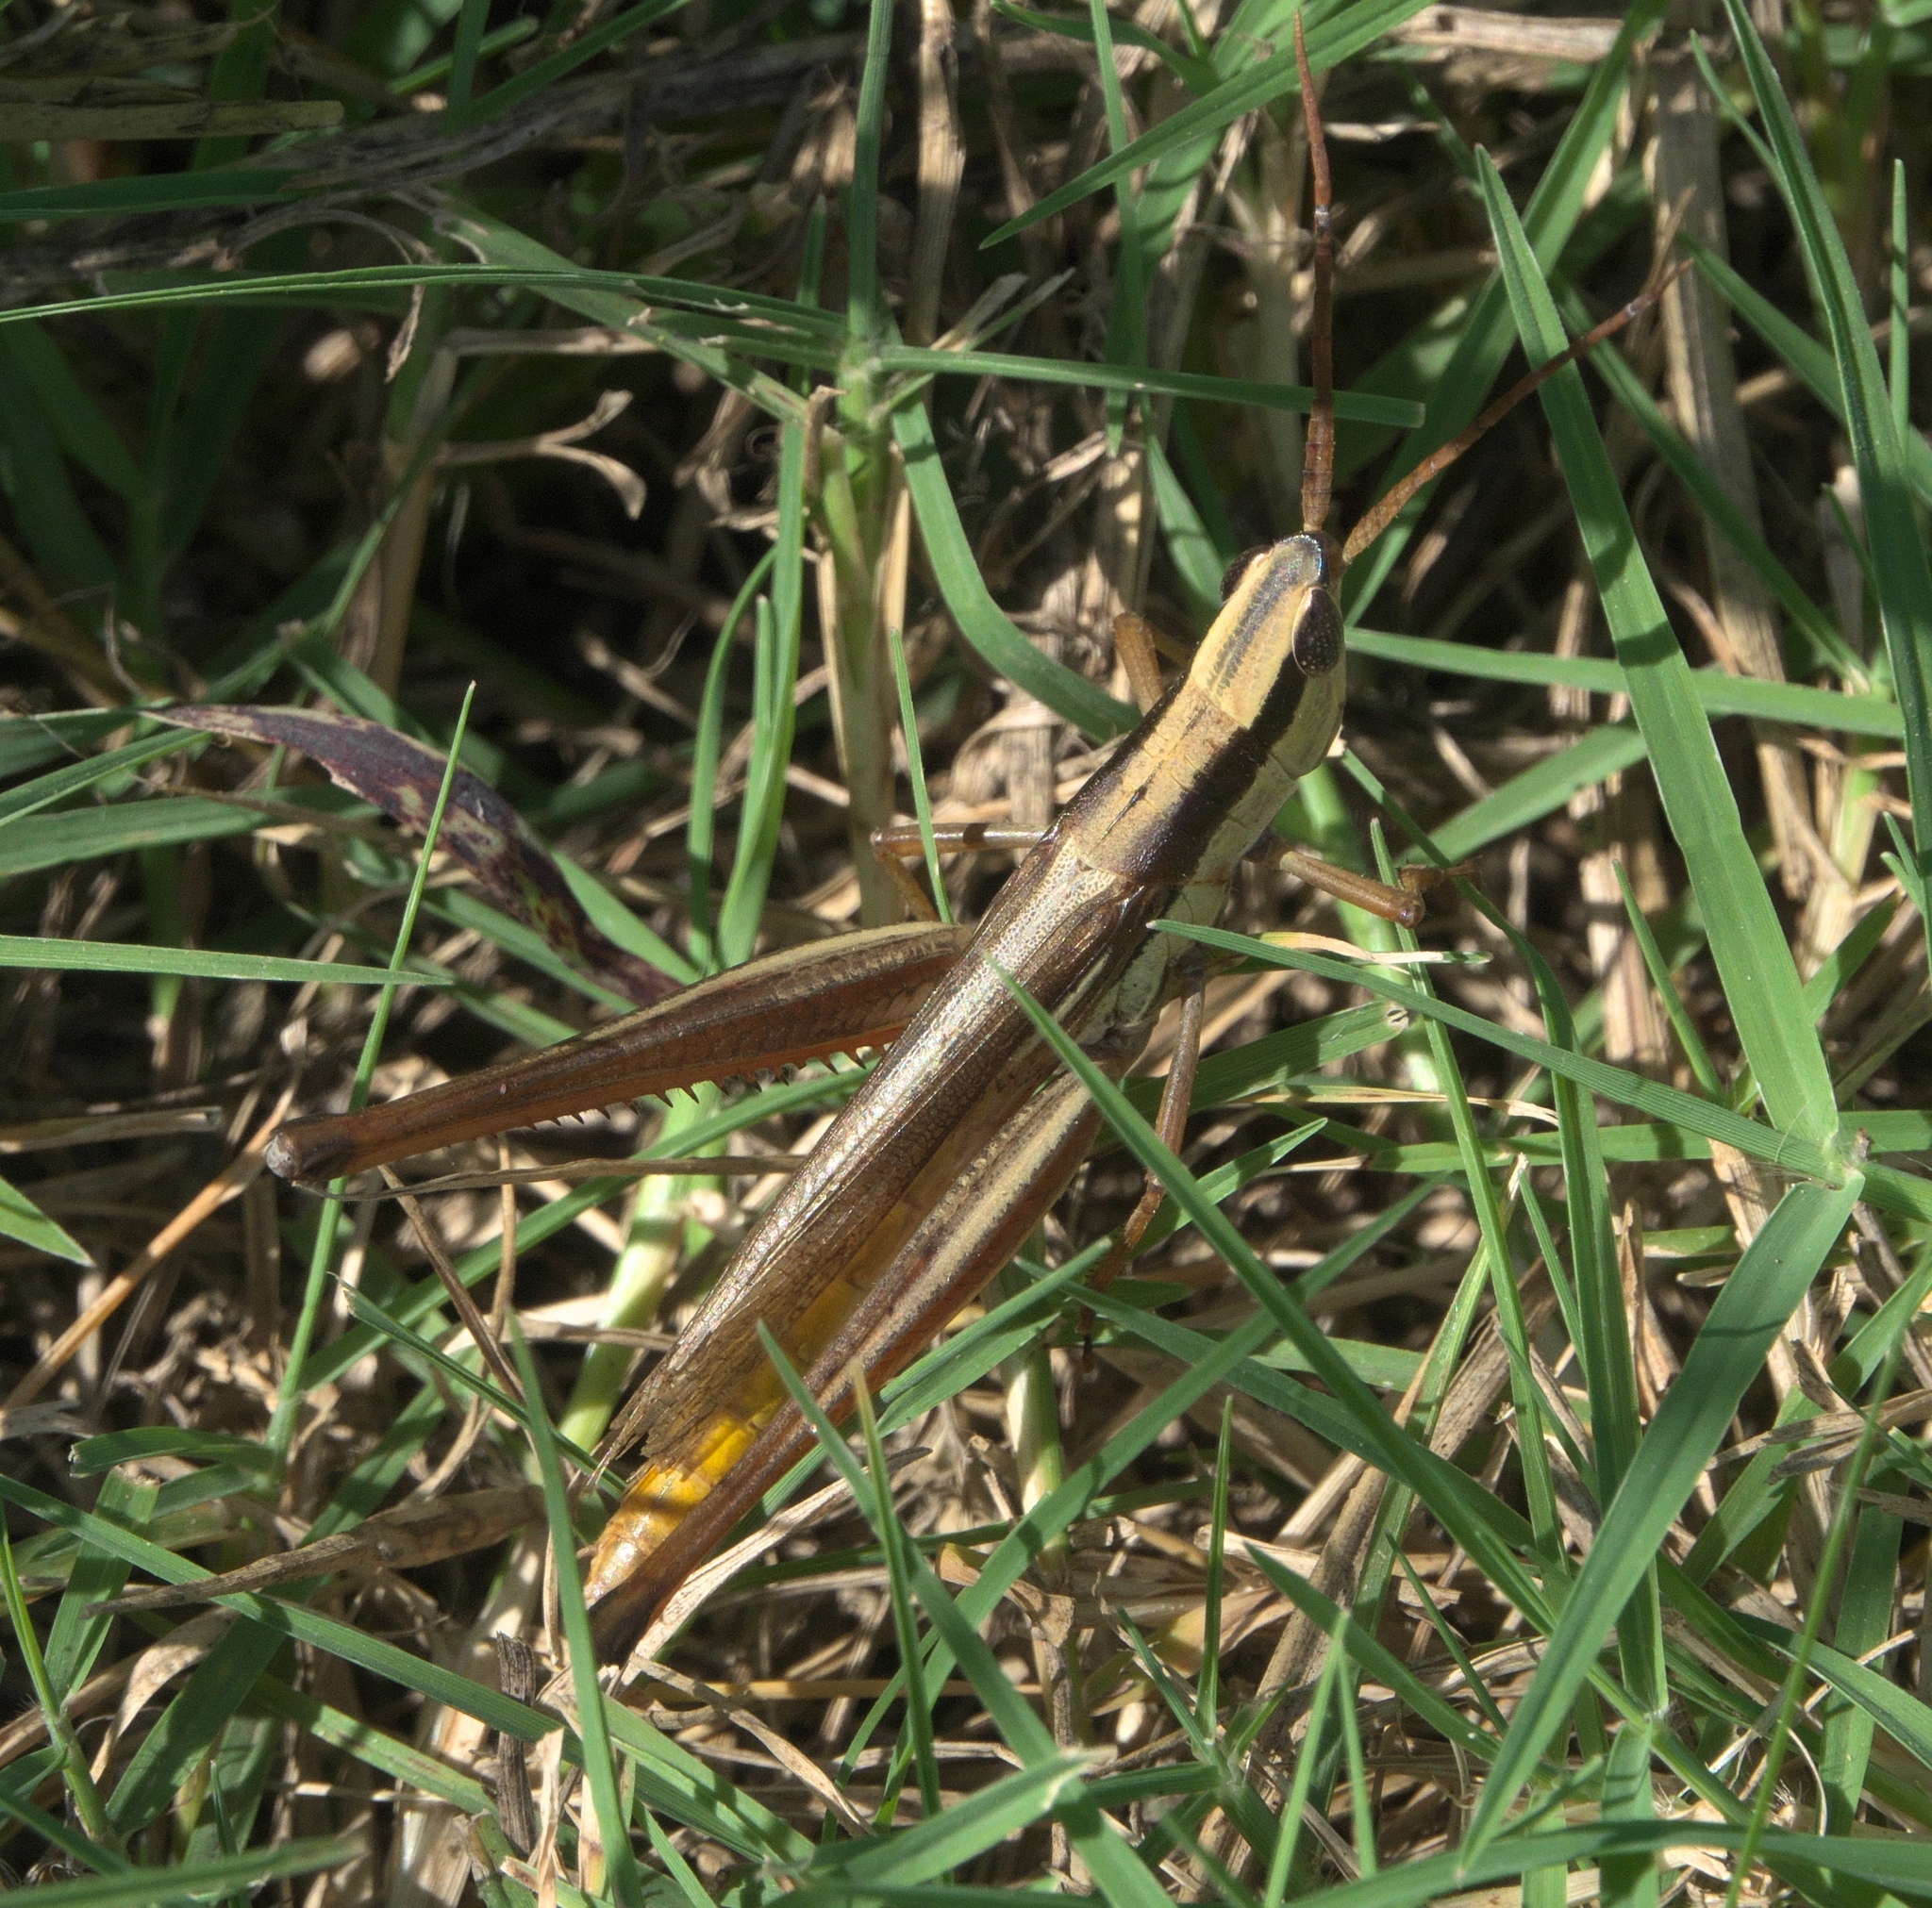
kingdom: Animalia
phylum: Arthropoda
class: Insecta
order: Orthoptera
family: Acrididae
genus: Mermiria
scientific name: Mermiria bivittata
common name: Two-striped mermiria grasshopper
